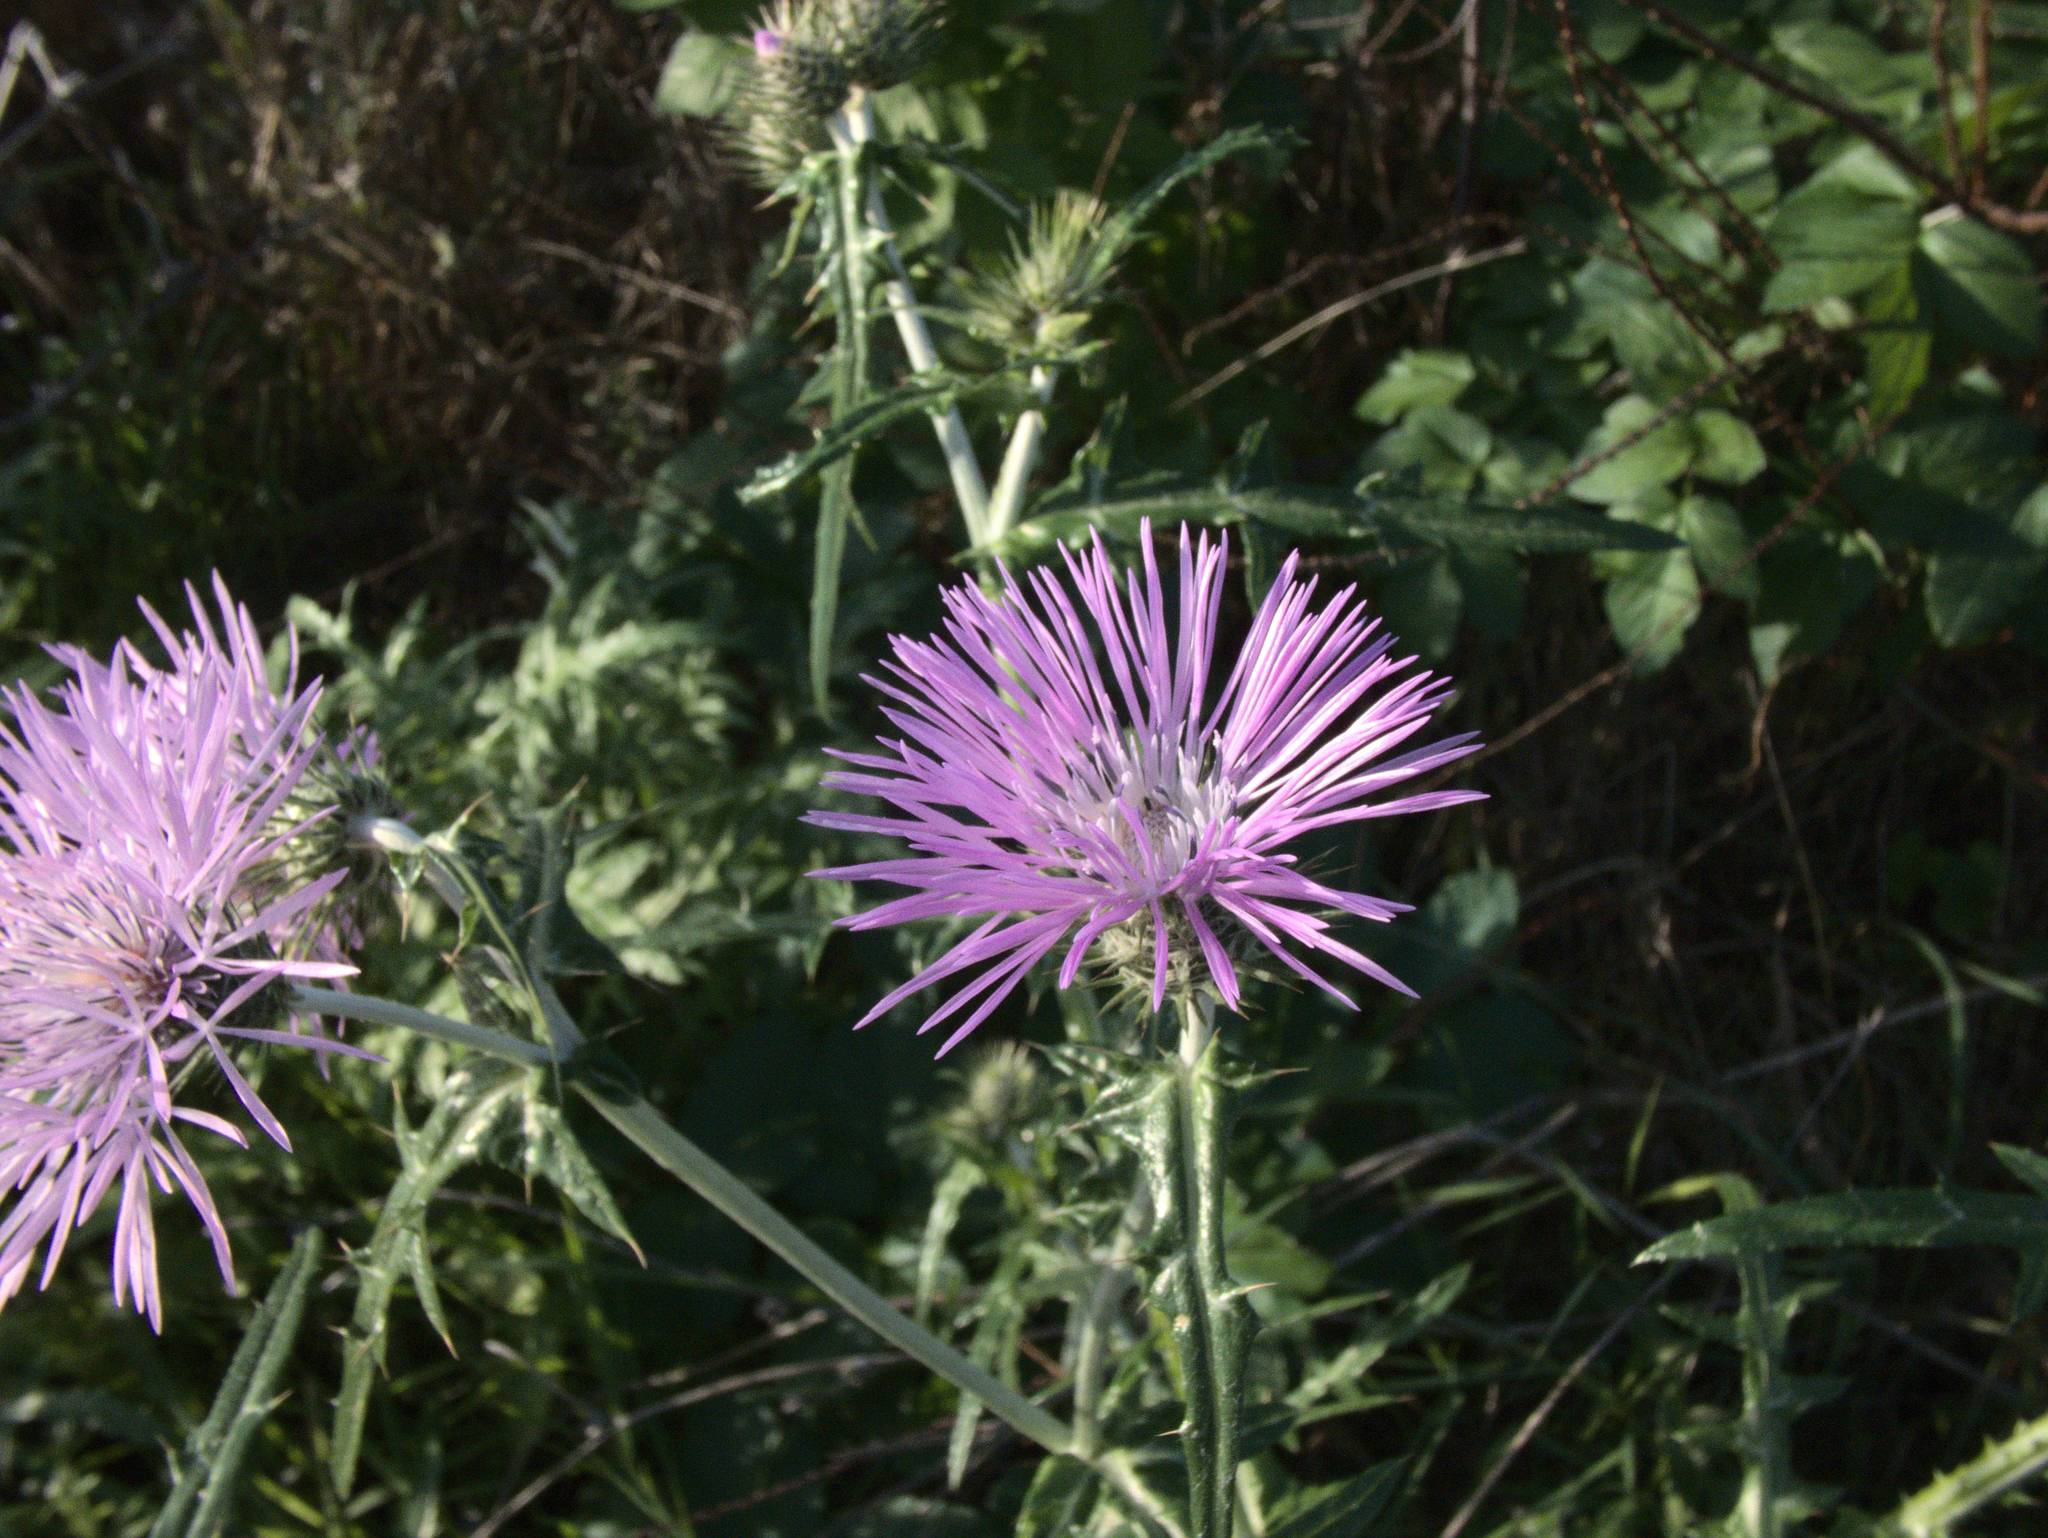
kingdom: Plantae
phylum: Tracheophyta
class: Magnoliopsida
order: Asterales
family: Asteraceae
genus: Galactites
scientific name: Galactites tomentosa
